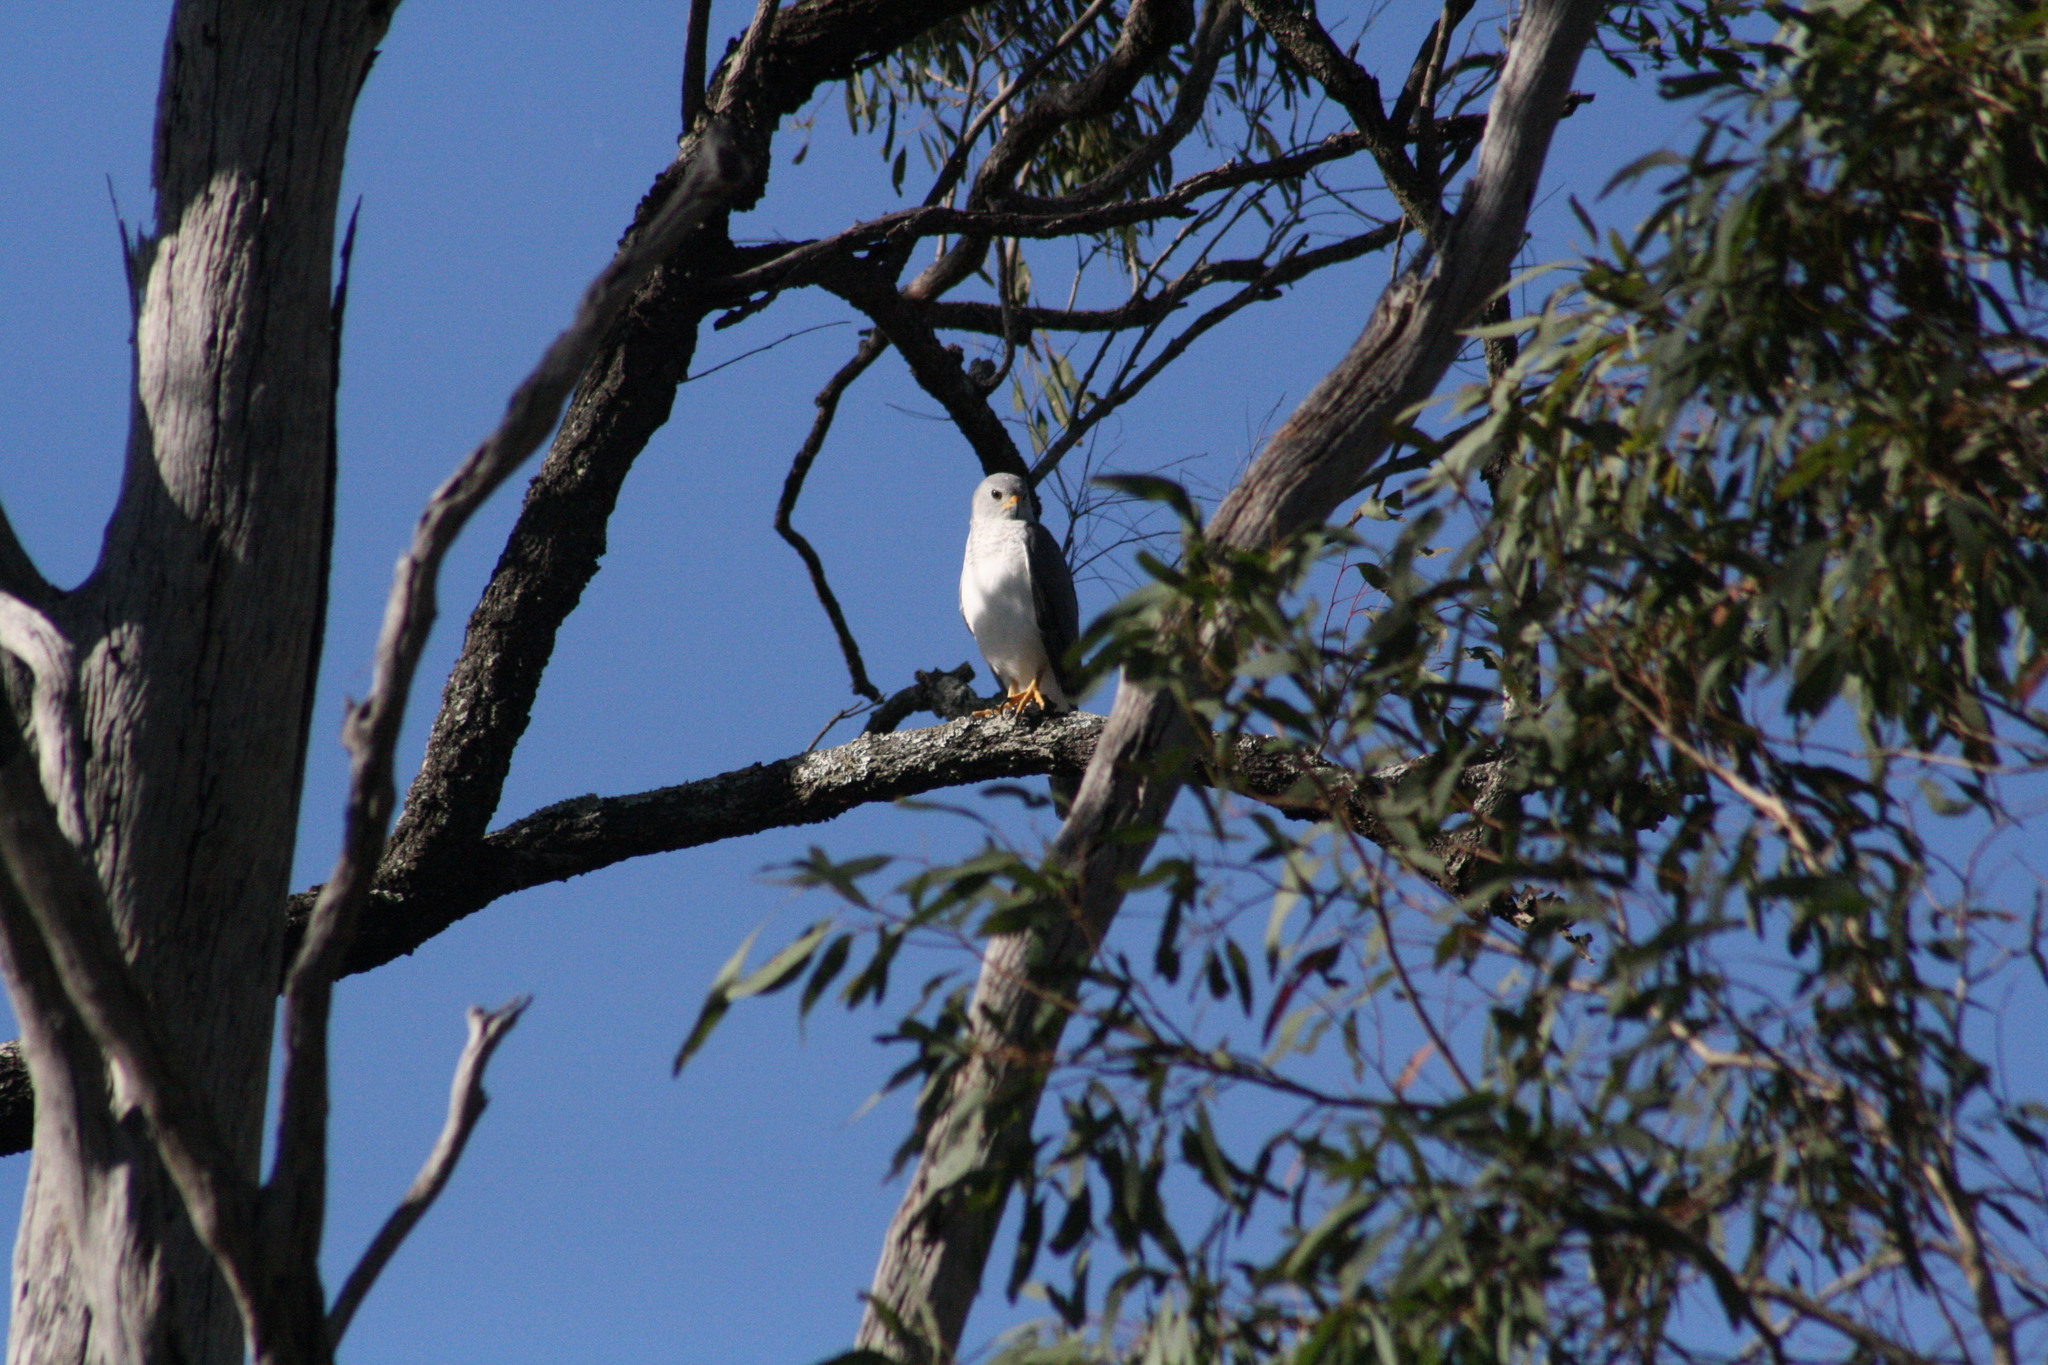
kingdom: Animalia
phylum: Chordata
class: Aves
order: Accipitriformes
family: Accipitridae
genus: Accipiter
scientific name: Accipiter novaehollandiae
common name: Grey goshawk
